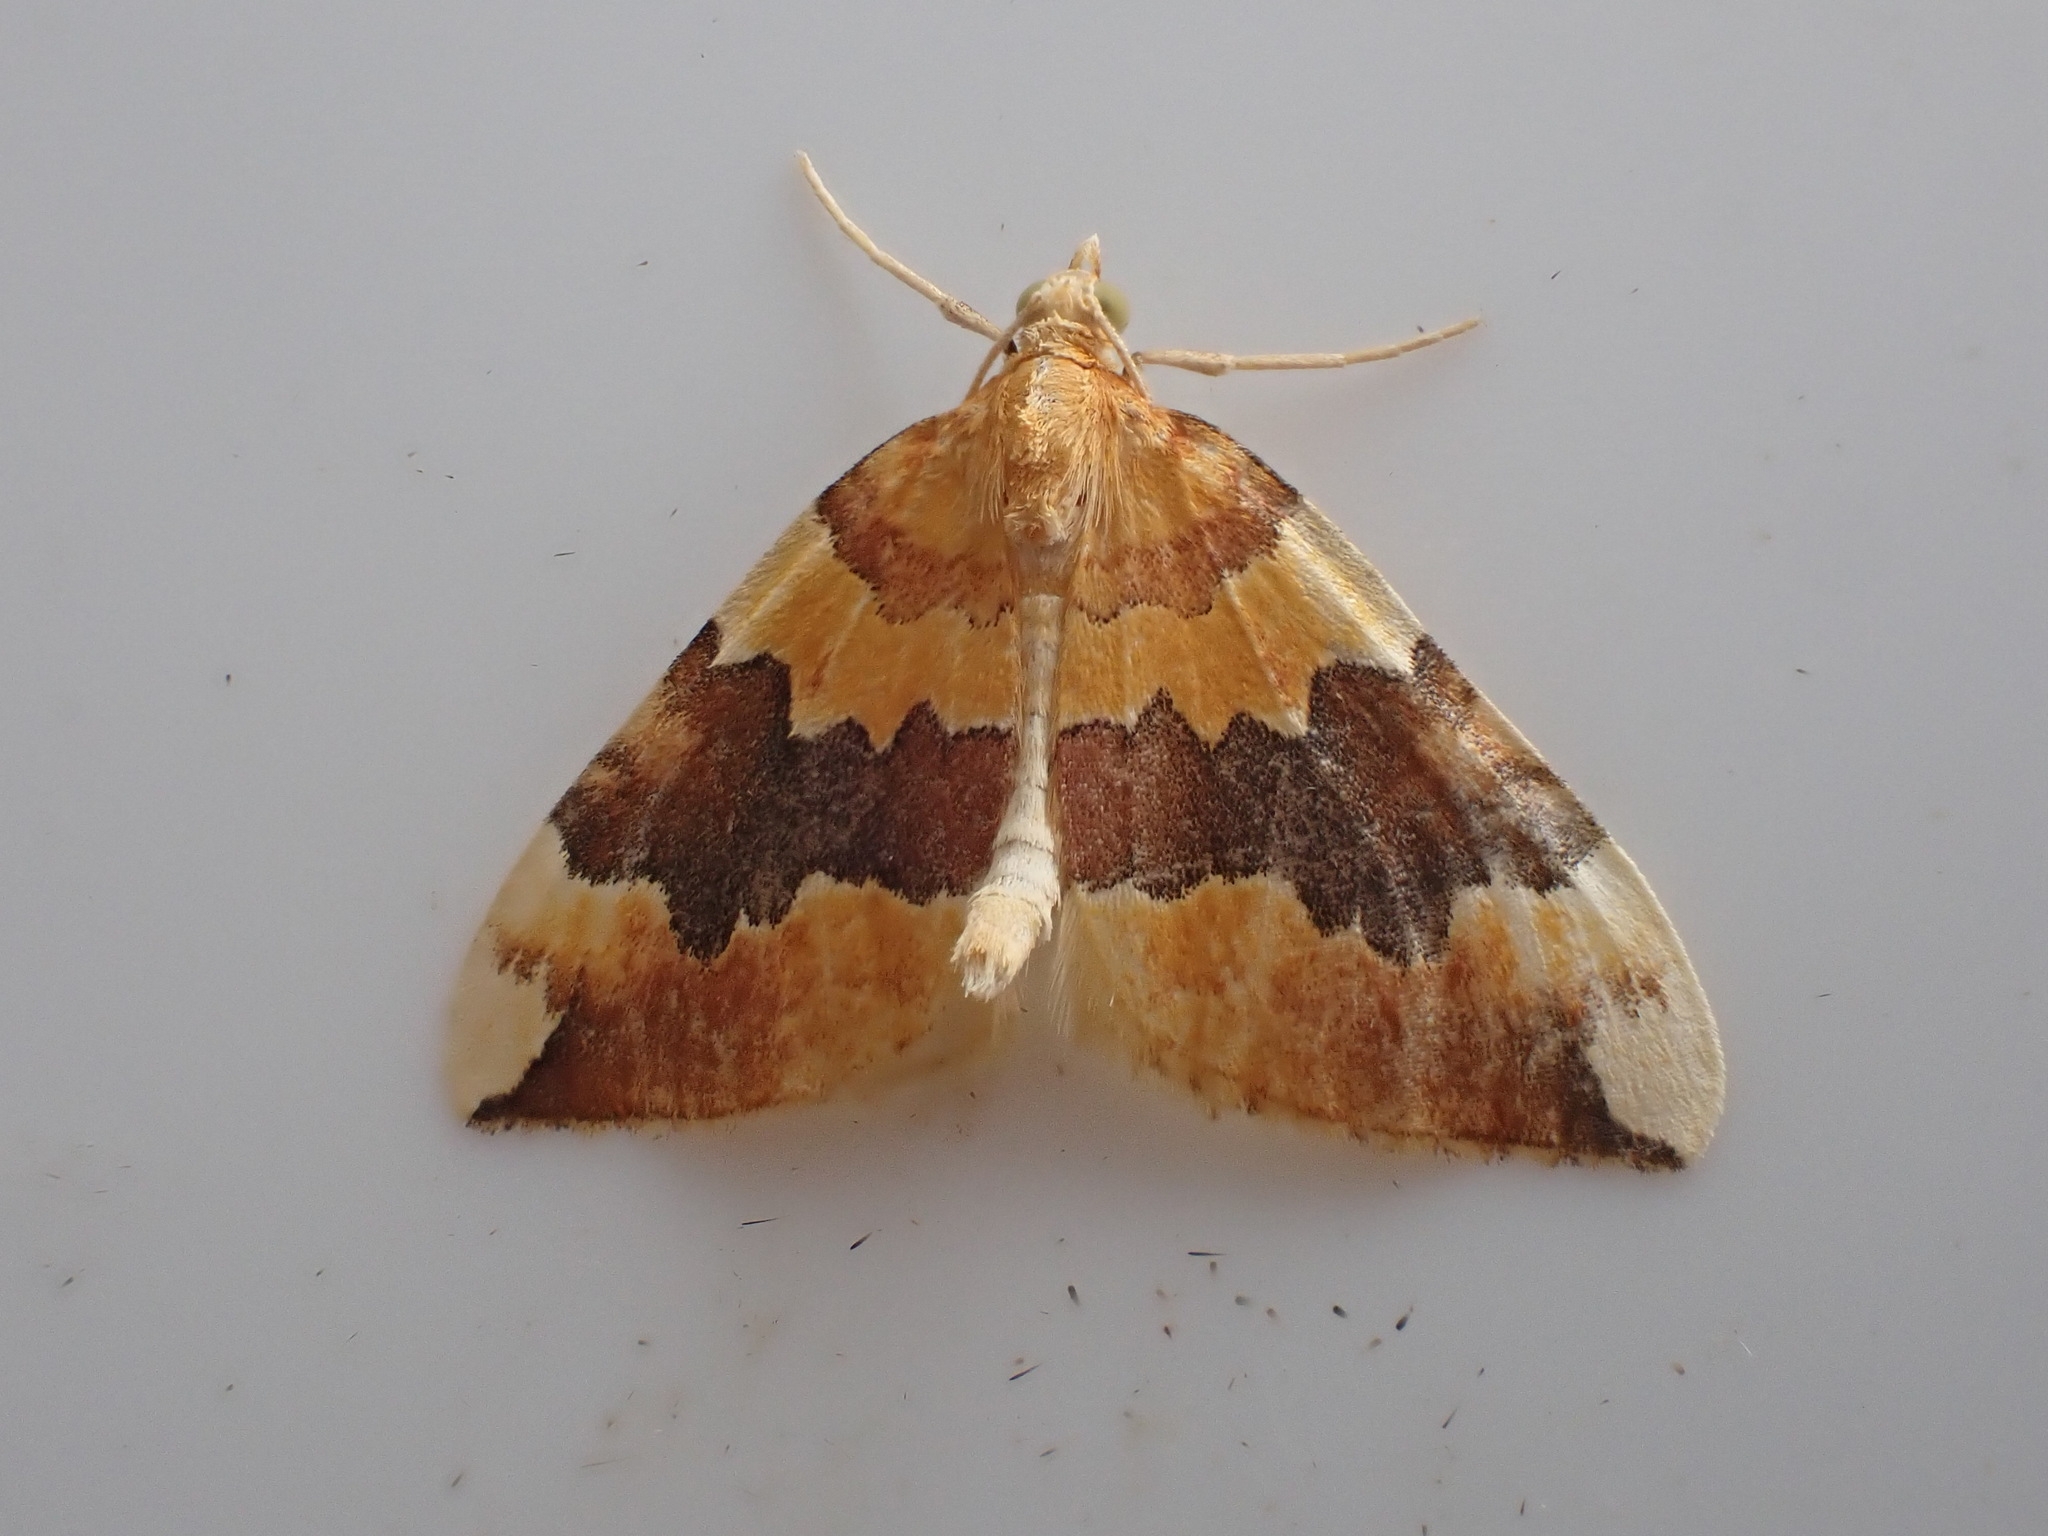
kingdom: Animalia
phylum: Arthropoda
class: Insecta
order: Lepidoptera
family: Geometridae
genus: Cidaria
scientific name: Cidaria fulvata
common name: Barred yellow
